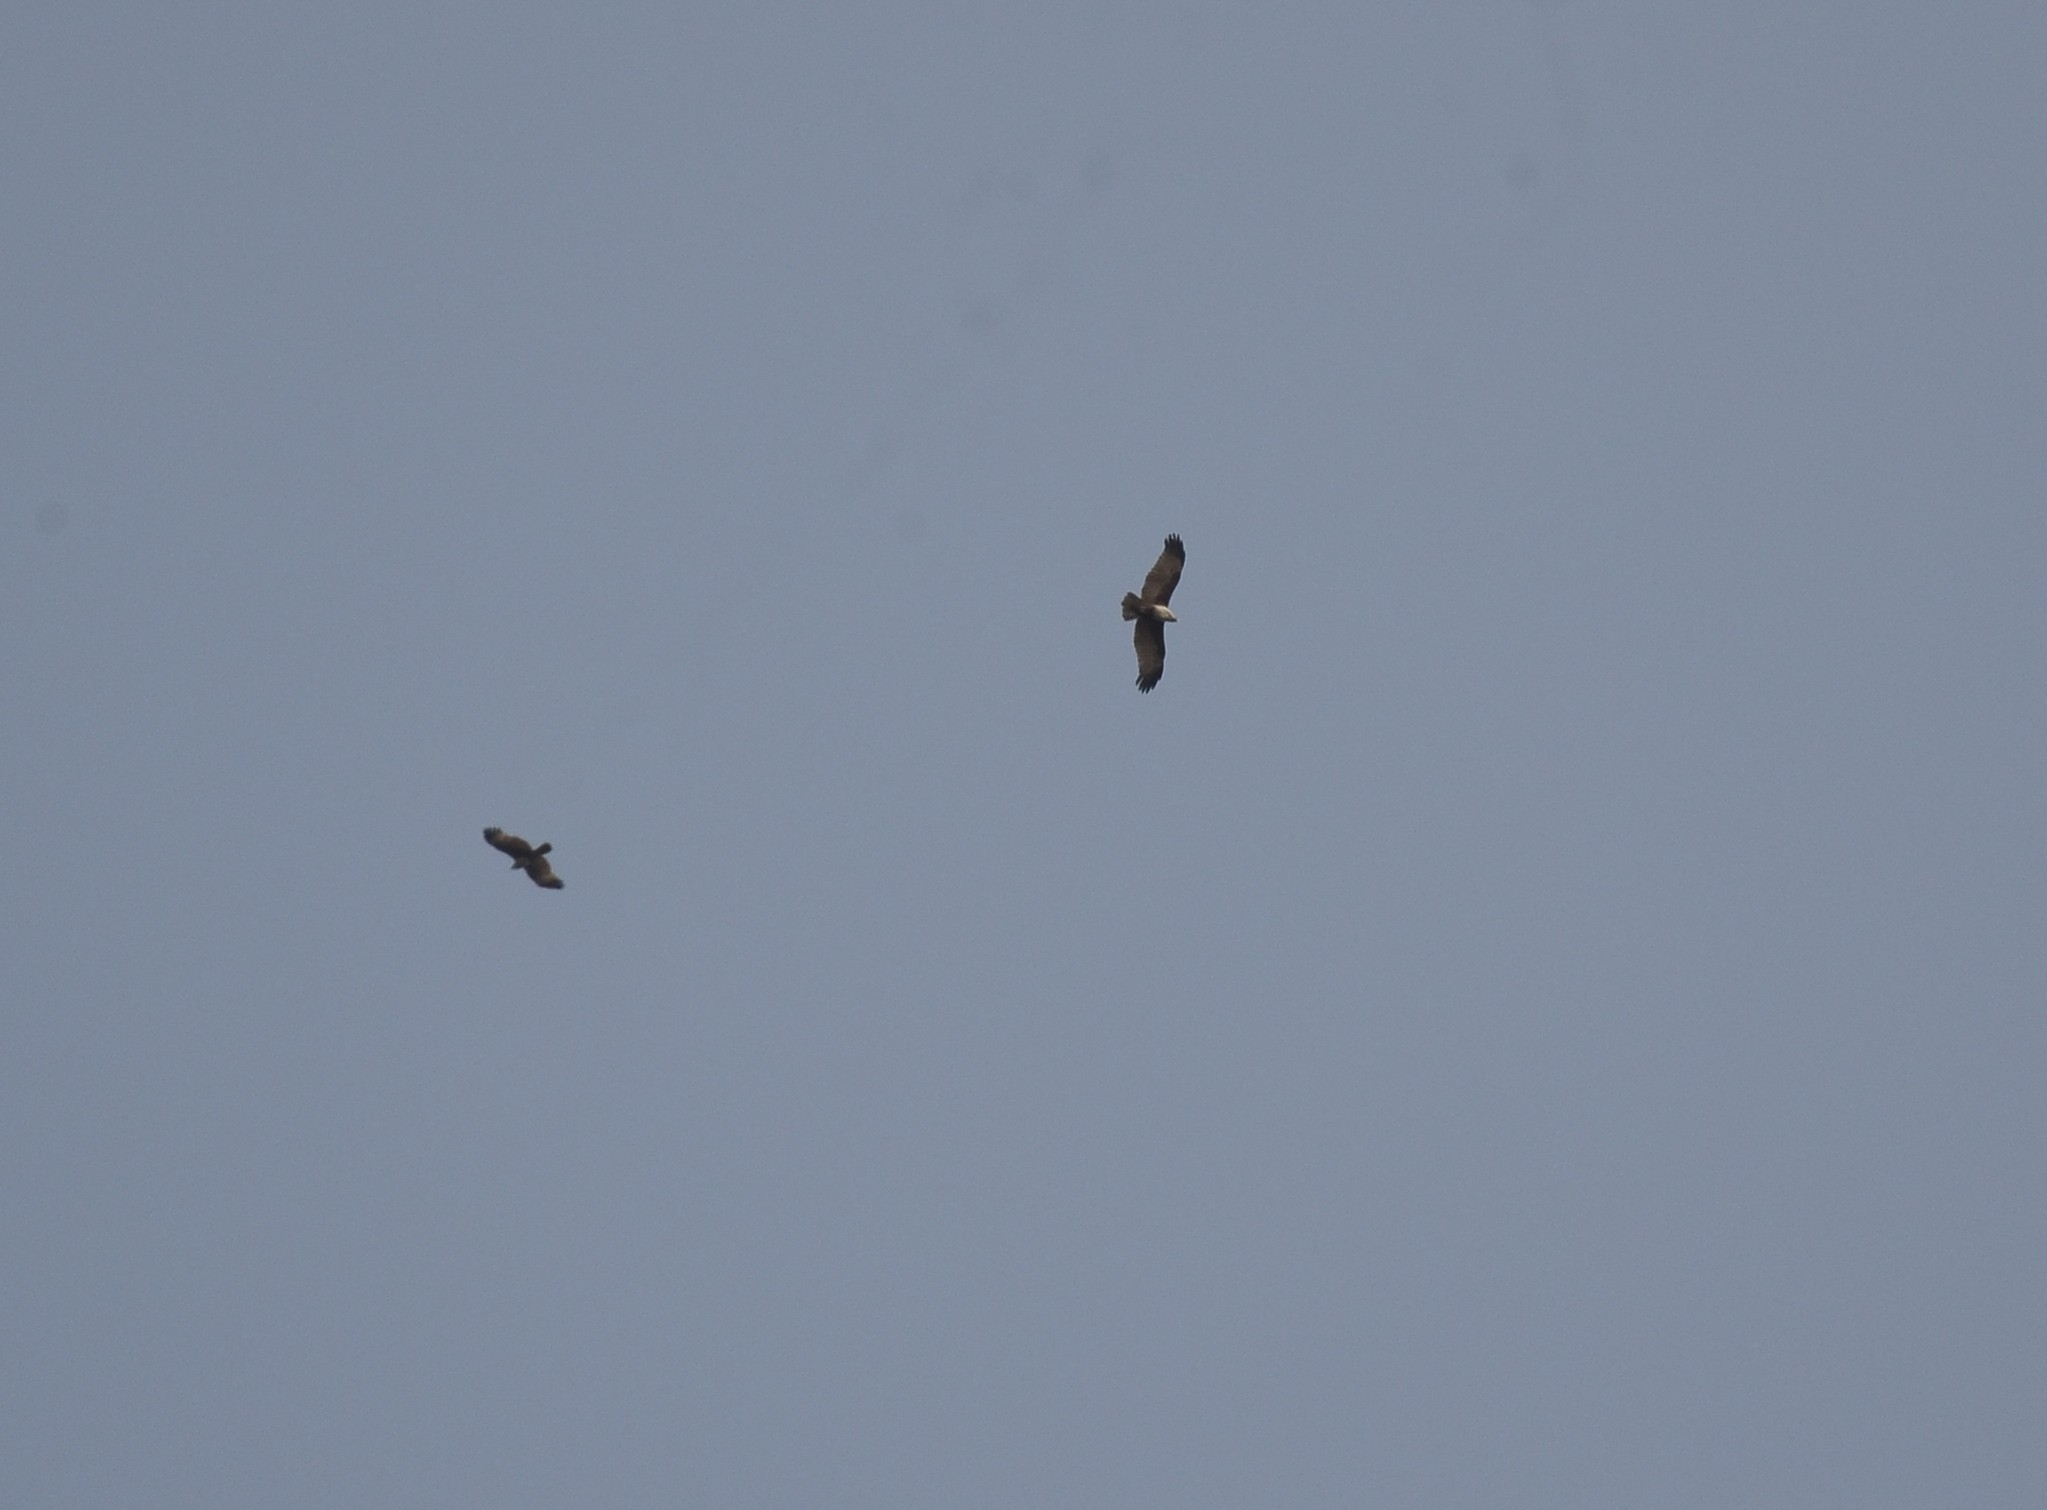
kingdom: Animalia
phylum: Chordata
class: Aves
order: Accipitriformes
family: Accipitridae
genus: Haliastur
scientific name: Haliastur indus
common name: Brahminy kite
